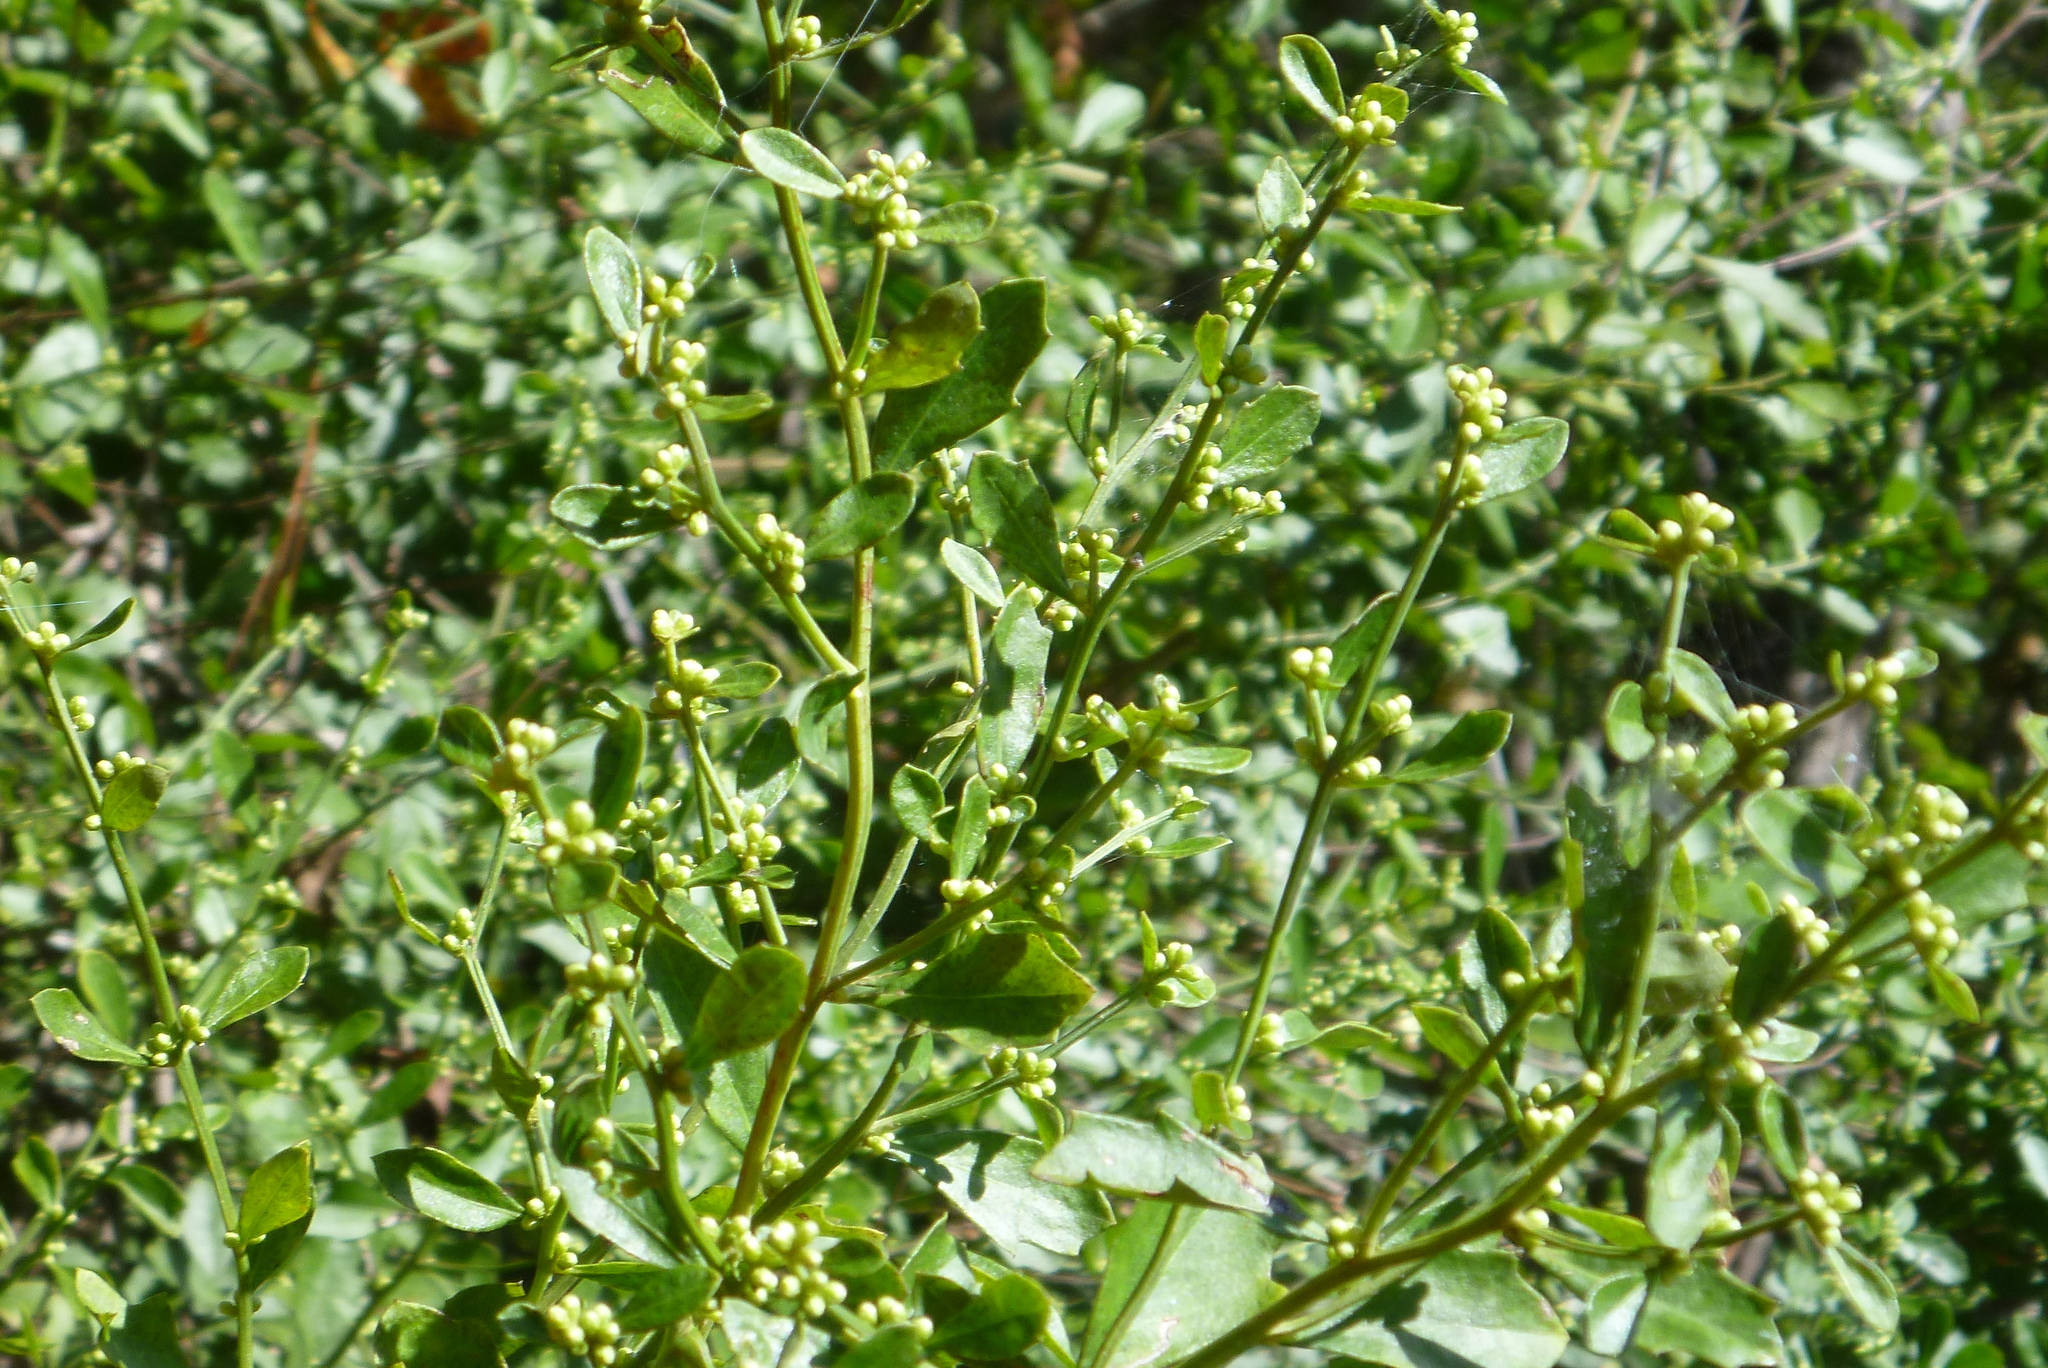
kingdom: Plantae
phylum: Tracheophyta
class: Magnoliopsida
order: Asterales
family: Asteraceae
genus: Baccharis
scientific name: Baccharis glomeruliflora
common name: Silverling groundsel bush
